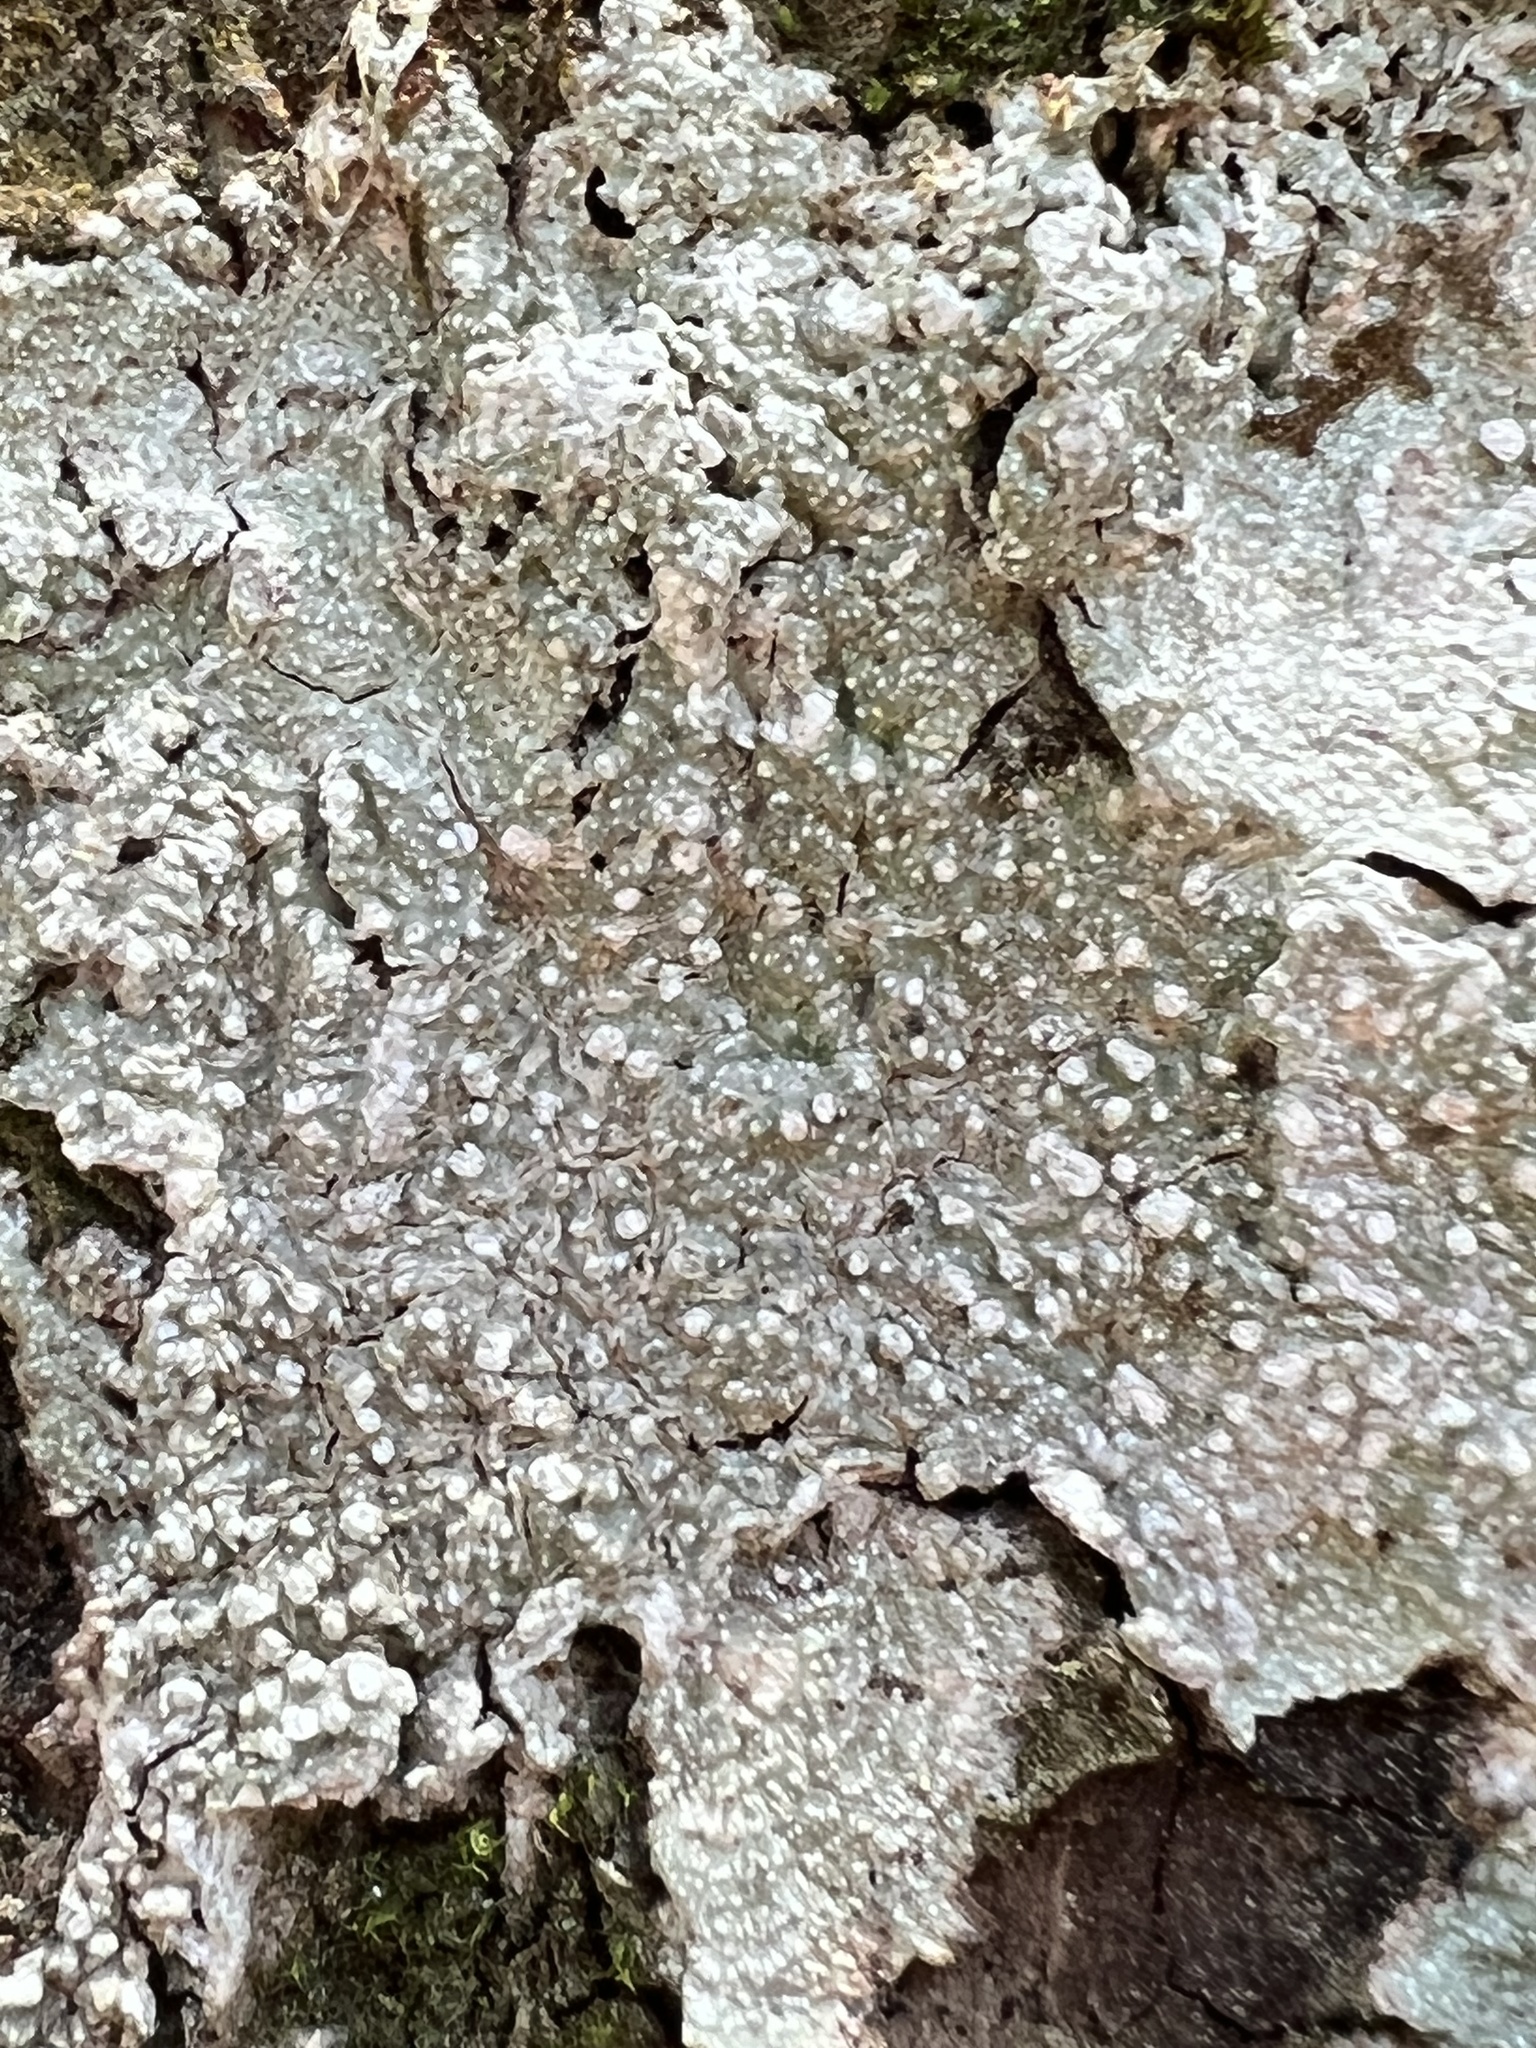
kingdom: Fungi
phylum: Ascomycota
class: Lecanoromycetes
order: Pertusariales
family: Pertusariaceae
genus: Lepra
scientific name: Lepra amara
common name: Bitter wart lichen
